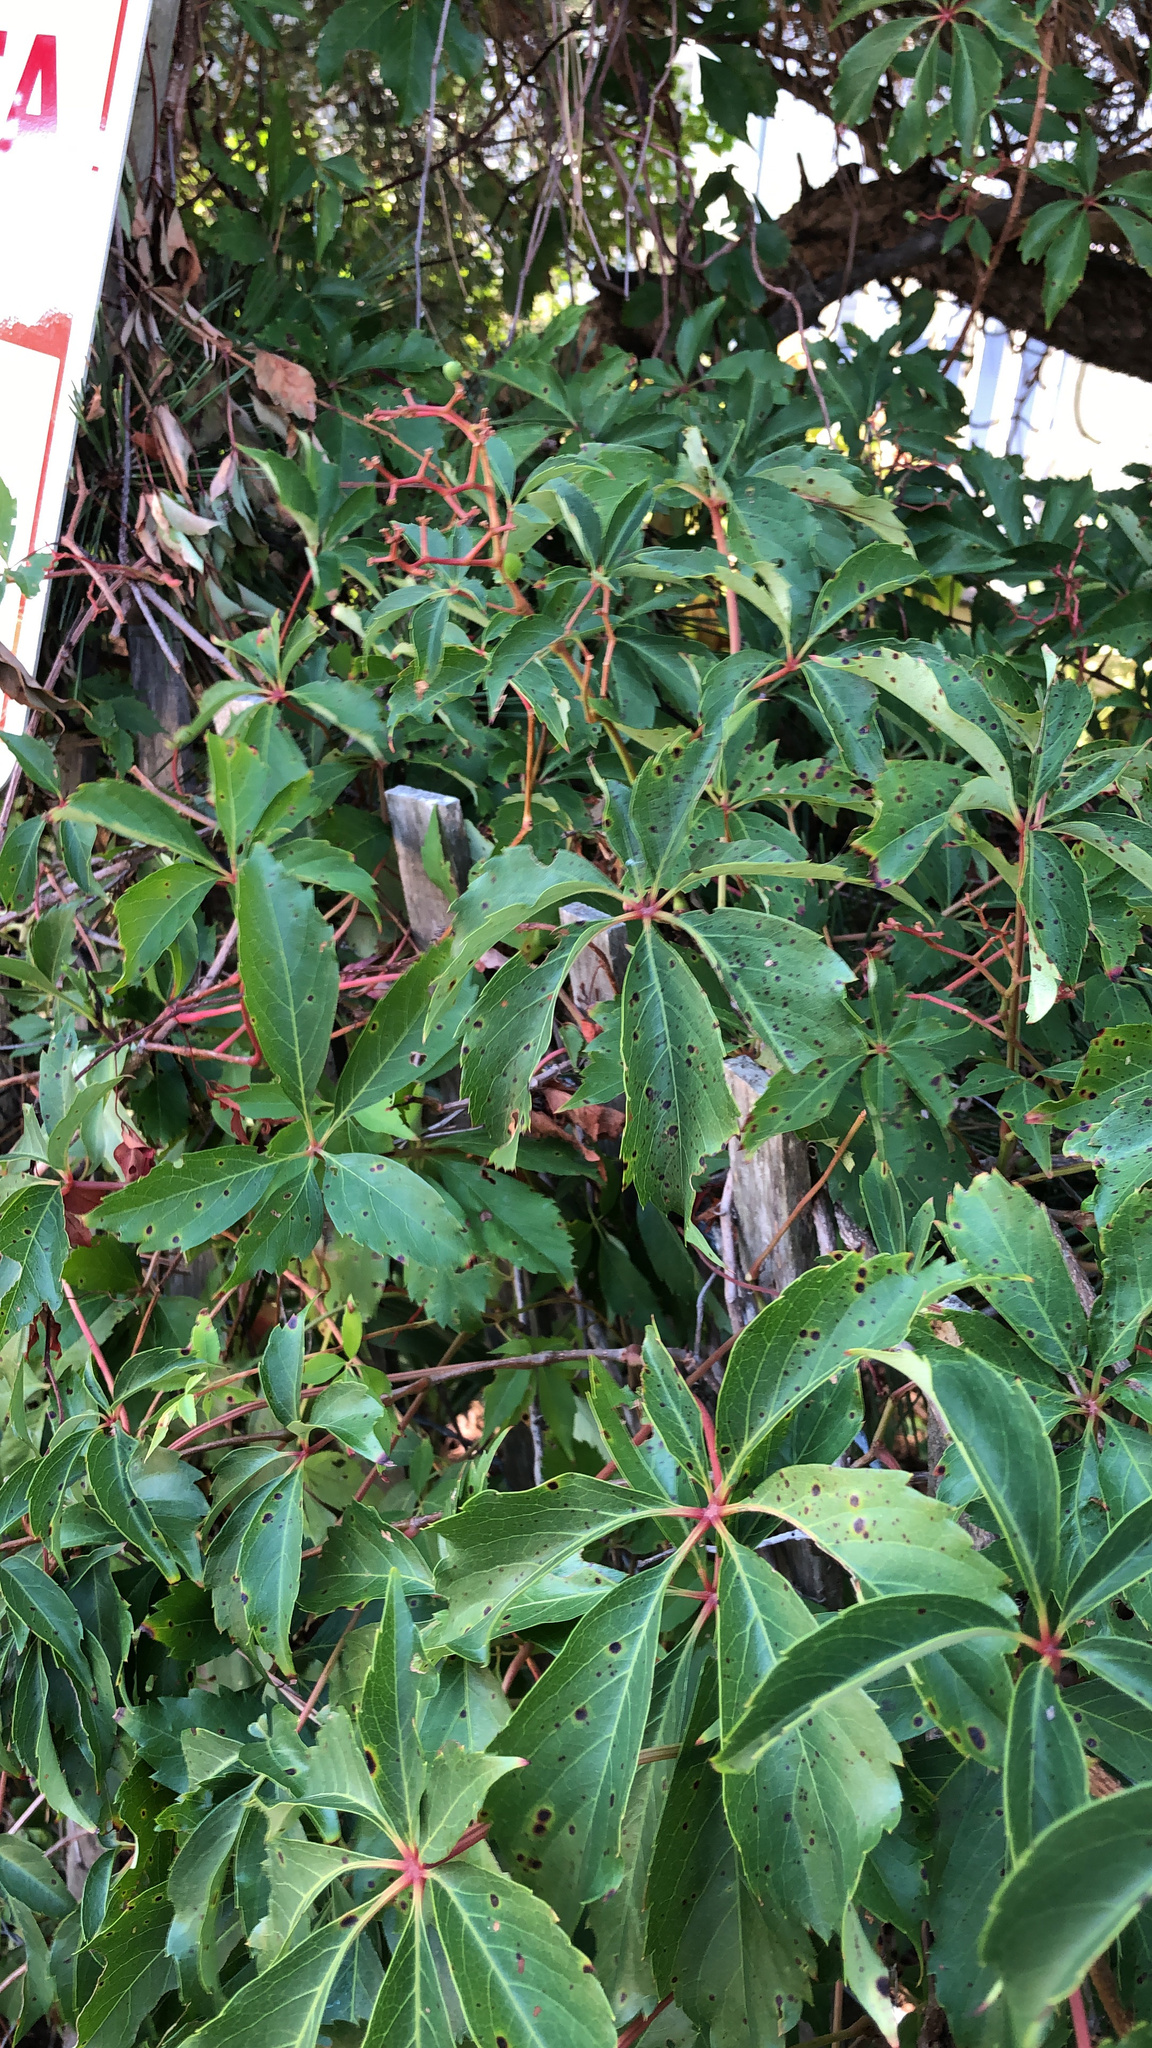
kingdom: Plantae
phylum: Tracheophyta
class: Magnoliopsida
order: Vitales
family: Vitaceae
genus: Parthenocissus
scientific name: Parthenocissus quinquefolia
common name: Virginia-creeper
